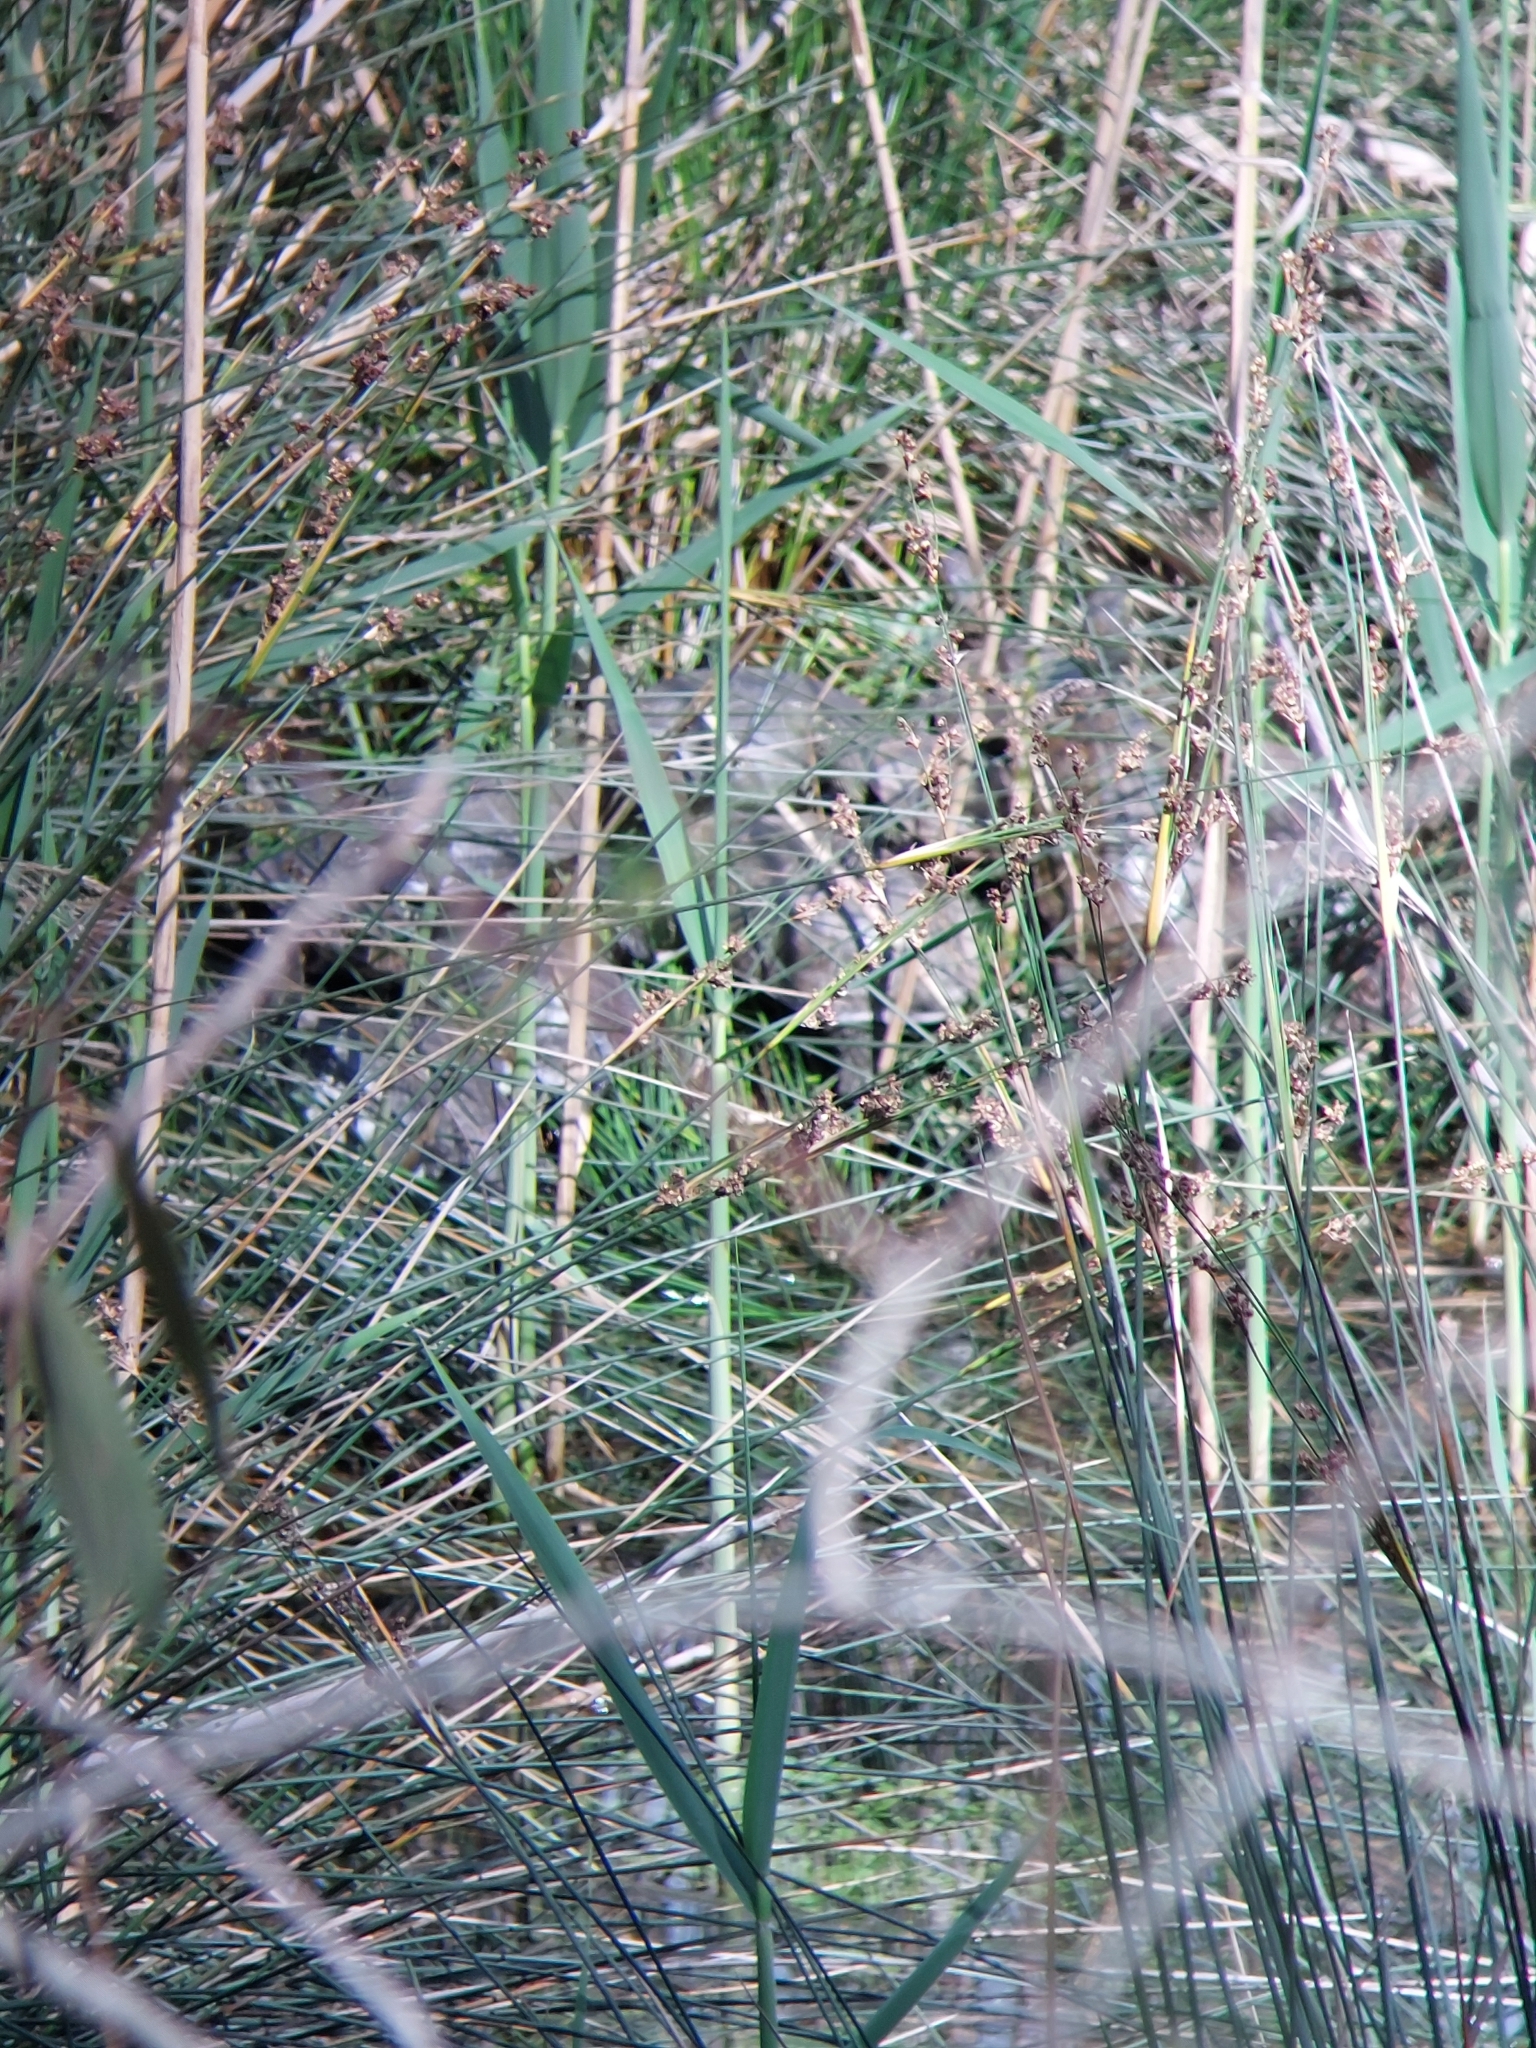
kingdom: Animalia
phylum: Chordata
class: Testudines
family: Geoemydidae
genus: Mauremys
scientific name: Mauremys rivulata
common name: Western caspian turtle
